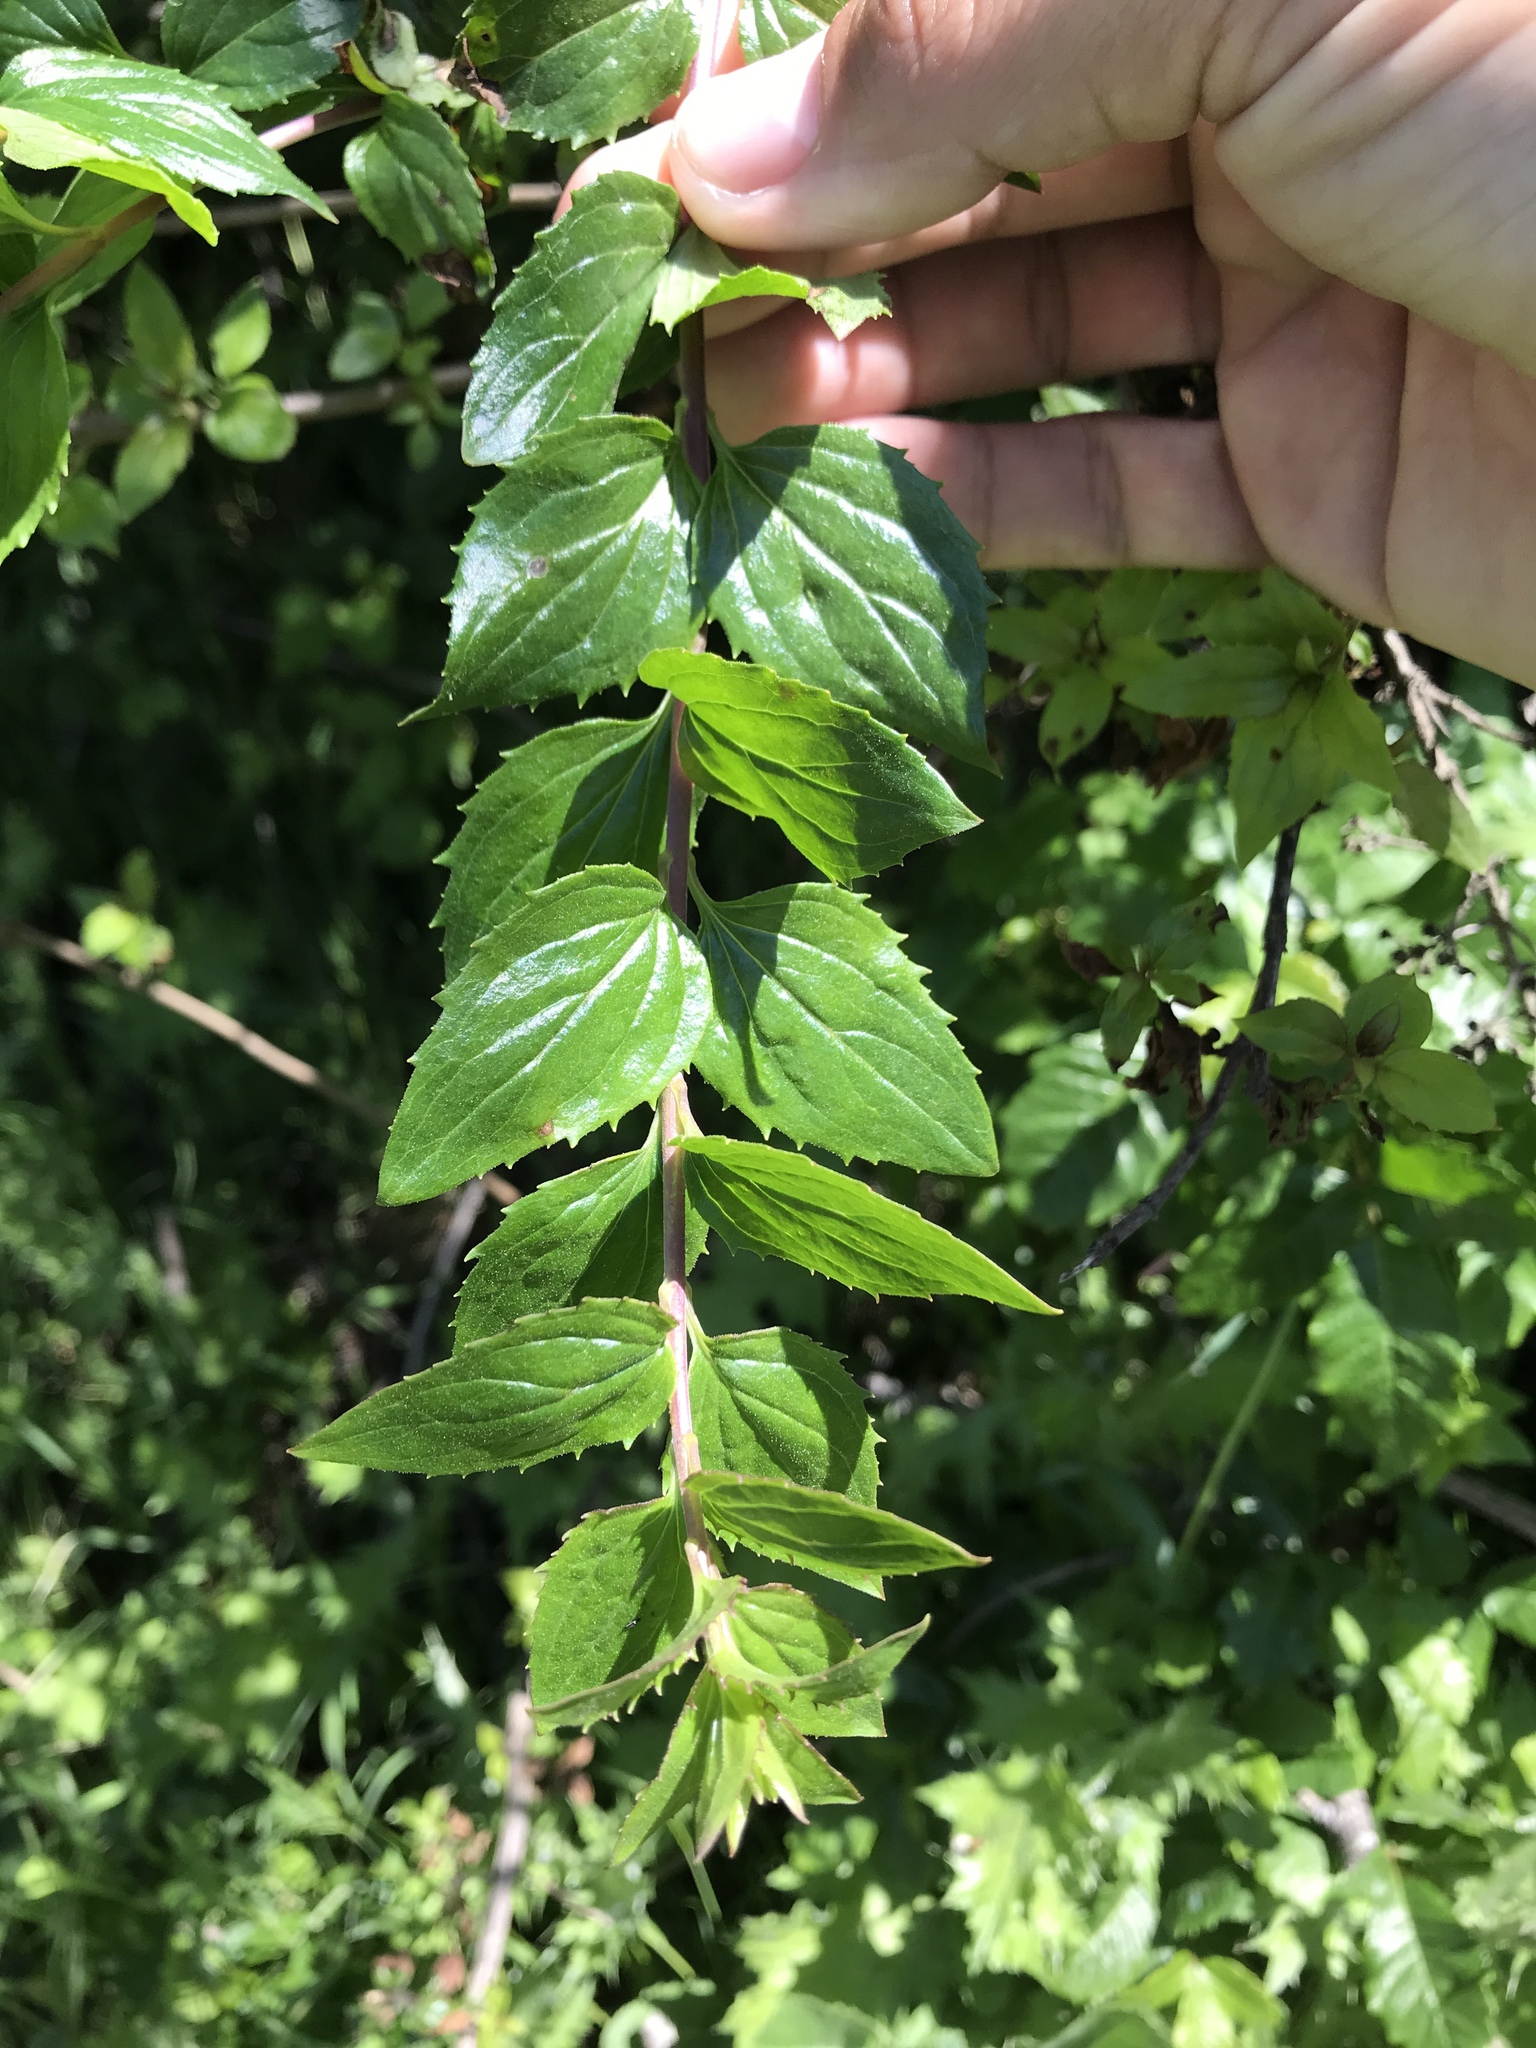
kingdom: Plantae
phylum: Tracheophyta
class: Magnoliopsida
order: Lamiales
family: Plantaginaceae
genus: Keckiella
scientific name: Keckiella cordifolia
